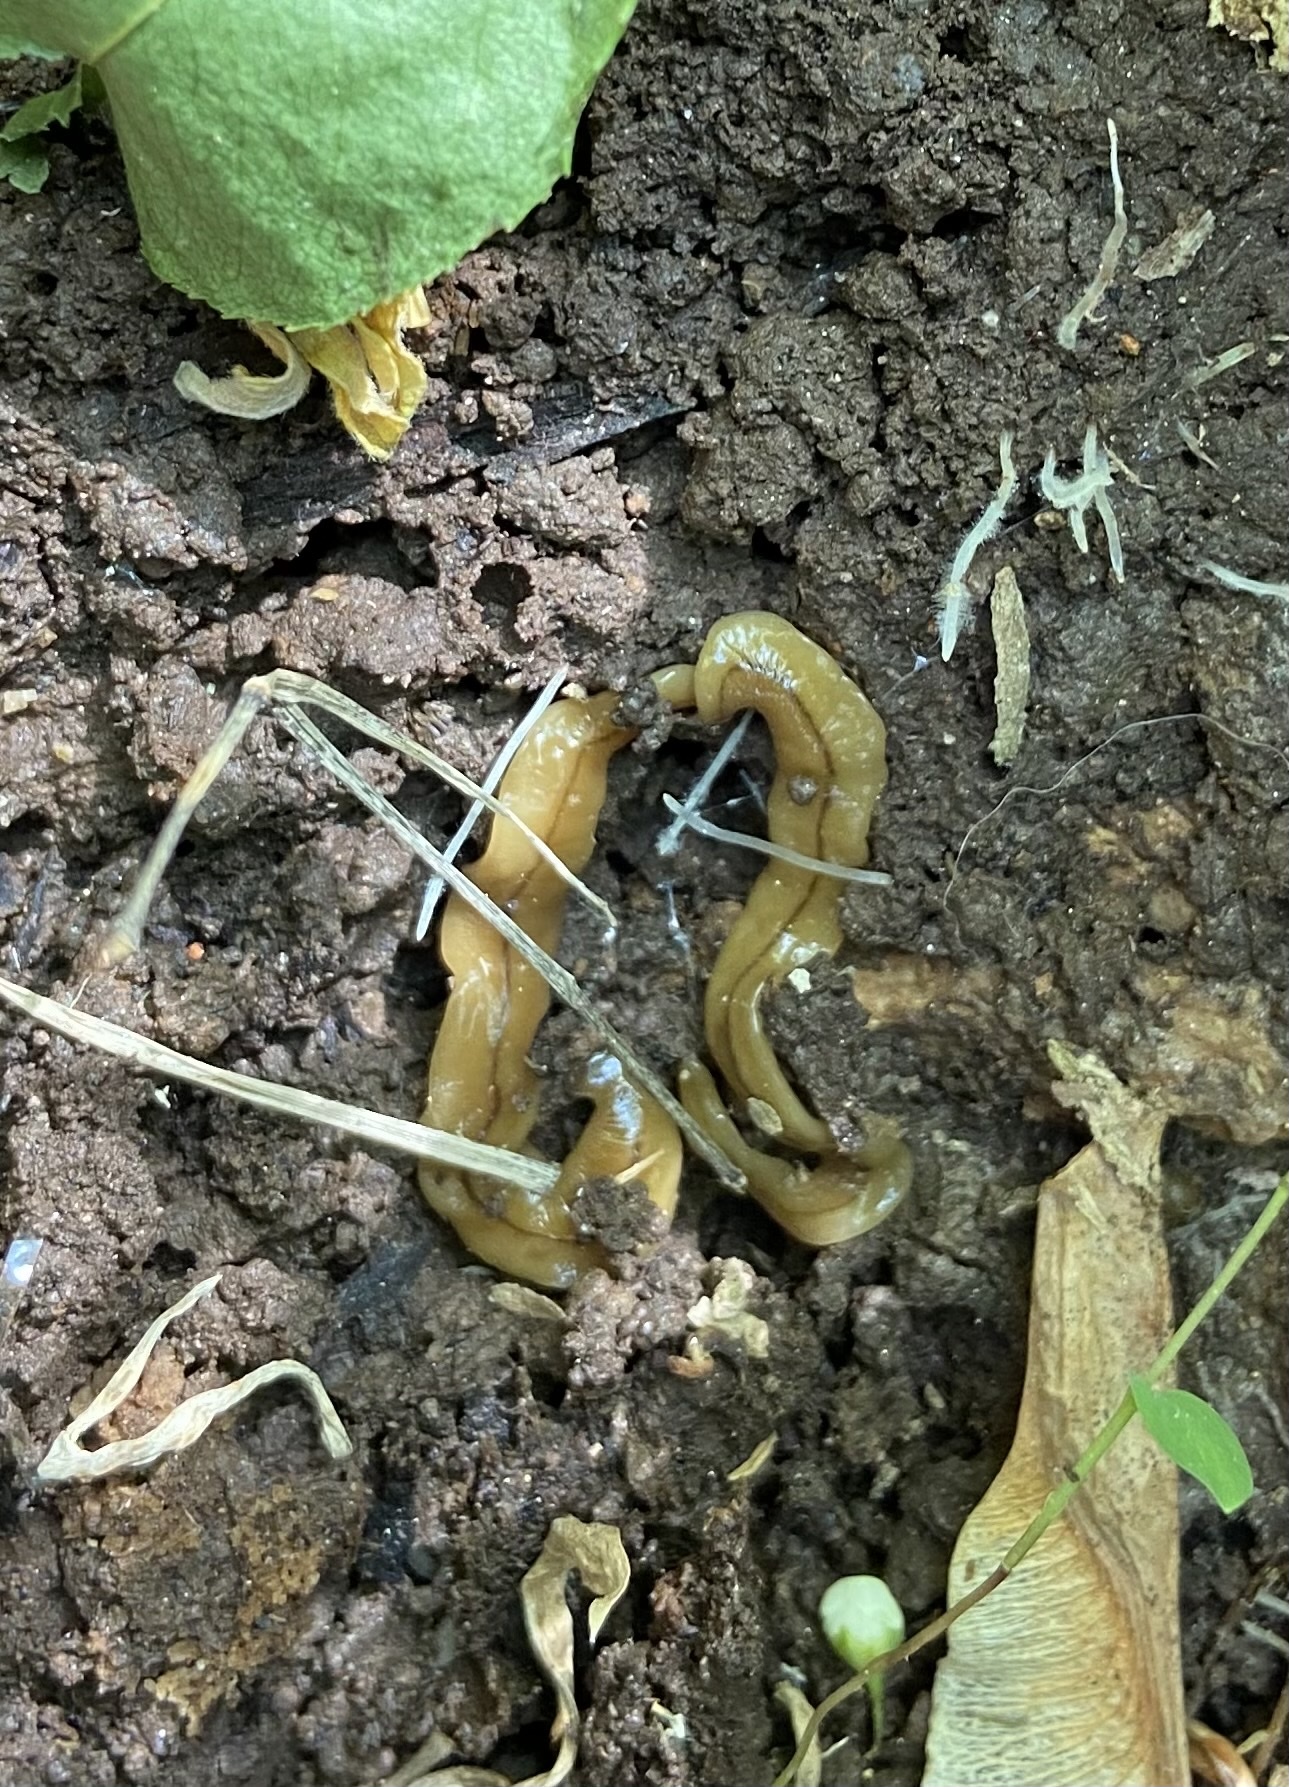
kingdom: Animalia
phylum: Platyhelminthes
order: Tricladida
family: Geoplanidae
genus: Bipalium
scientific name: Bipalium adventitium
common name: Land planarian
